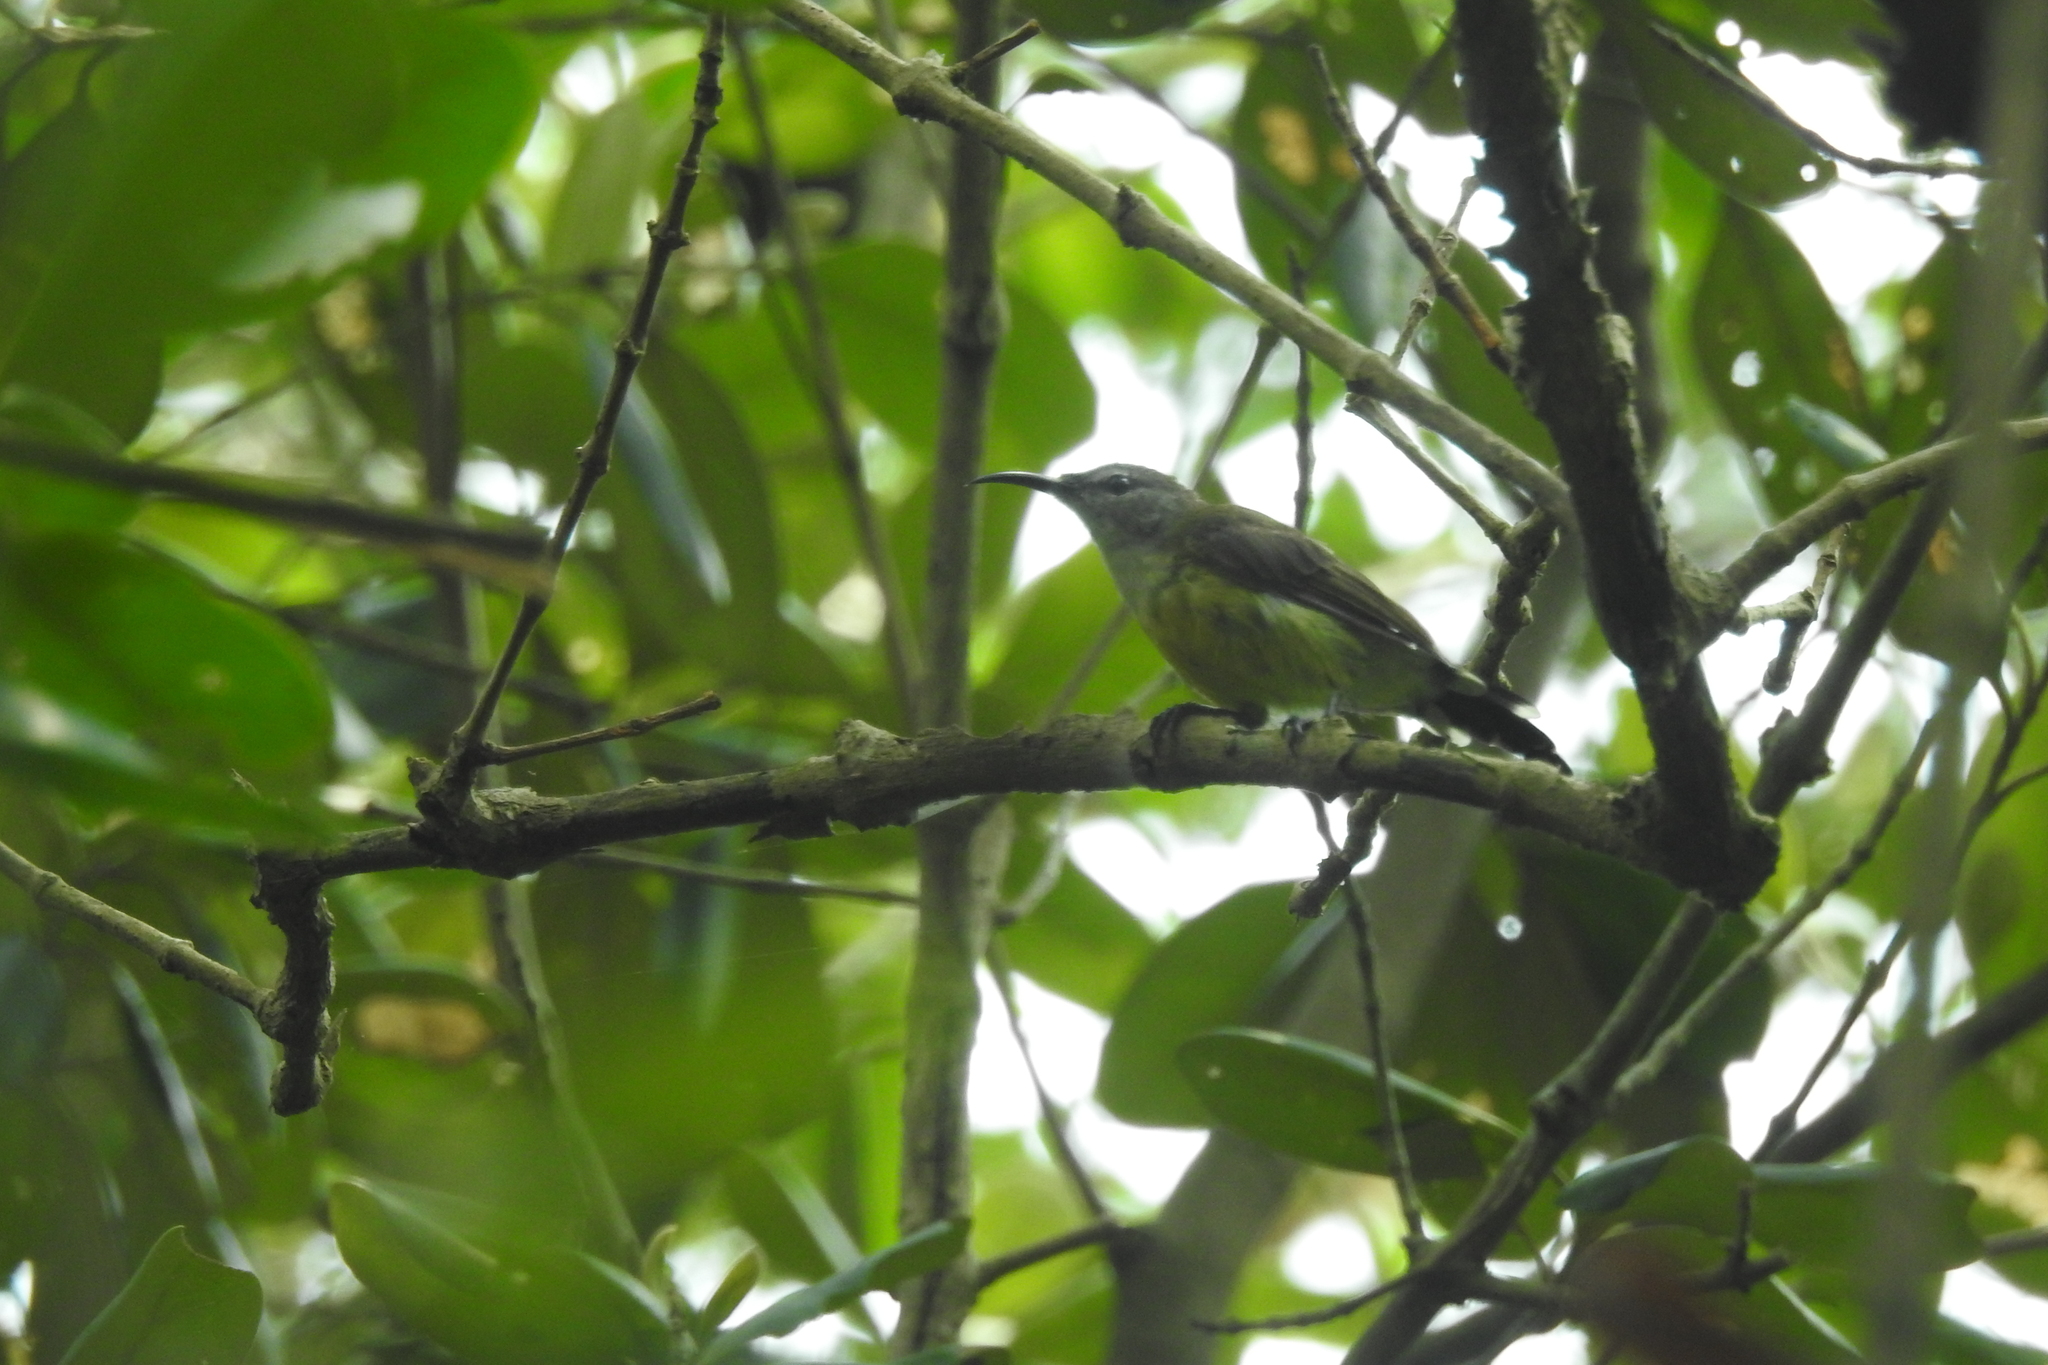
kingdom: Animalia
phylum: Chordata
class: Aves
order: Passeriformes
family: Nectariniidae
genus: Leptocoma
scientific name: Leptocoma calcostetha
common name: Copper-throated sunbird
